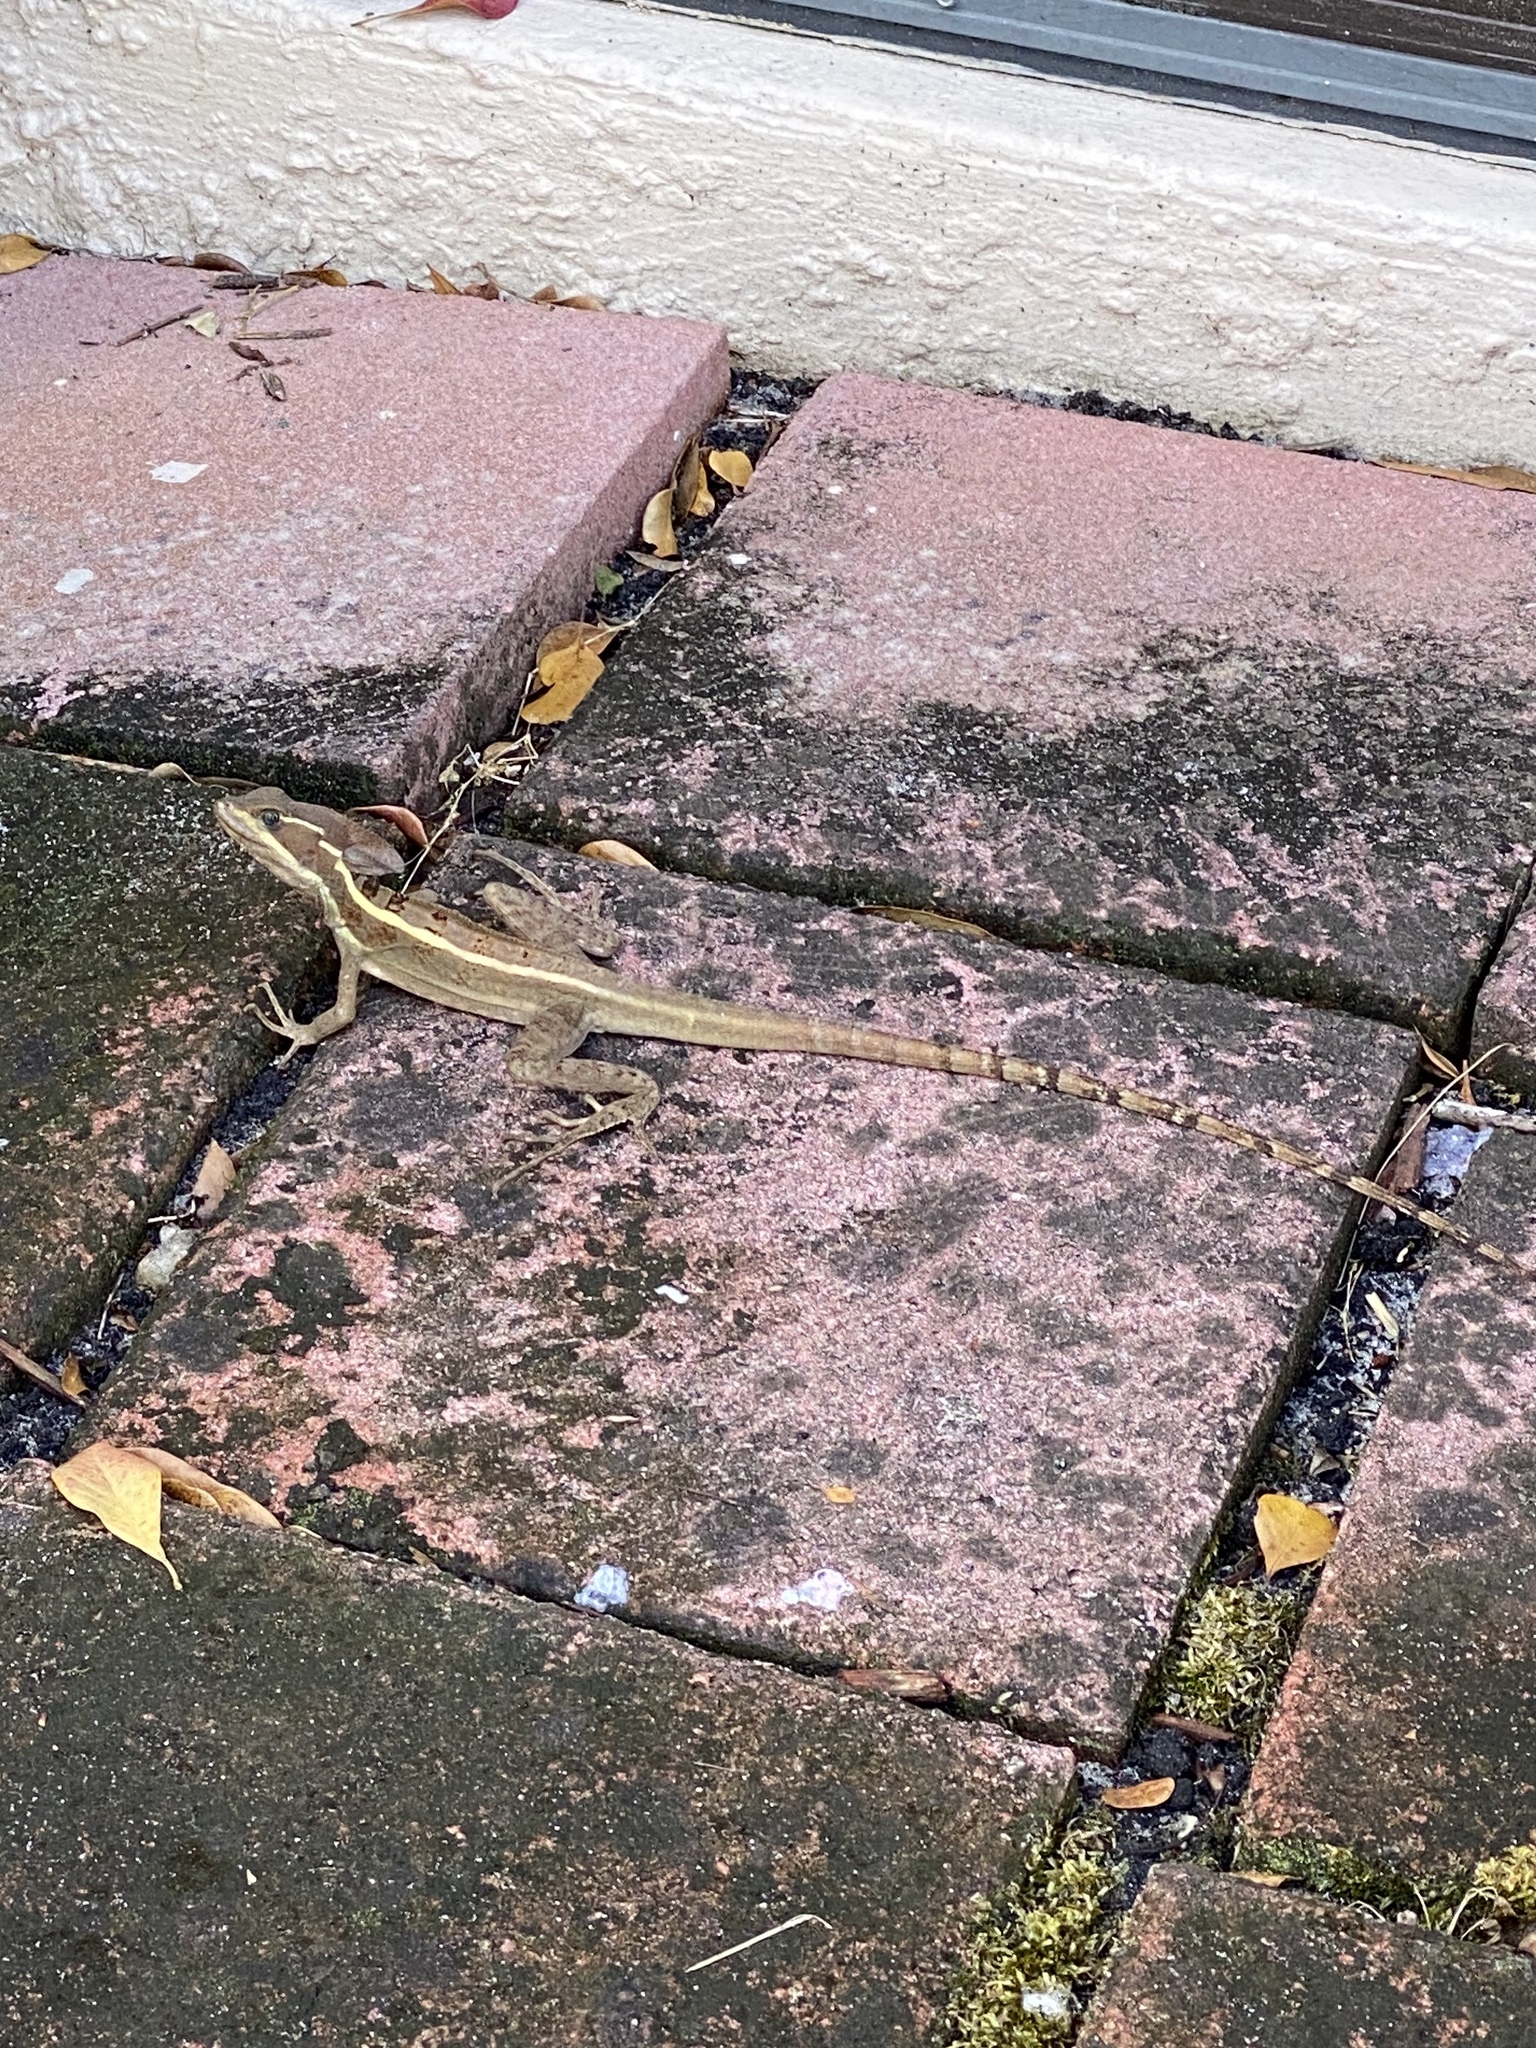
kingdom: Animalia
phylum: Chordata
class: Squamata
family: Corytophanidae
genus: Basiliscus
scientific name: Basiliscus vittatus
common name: Brown basilisk
